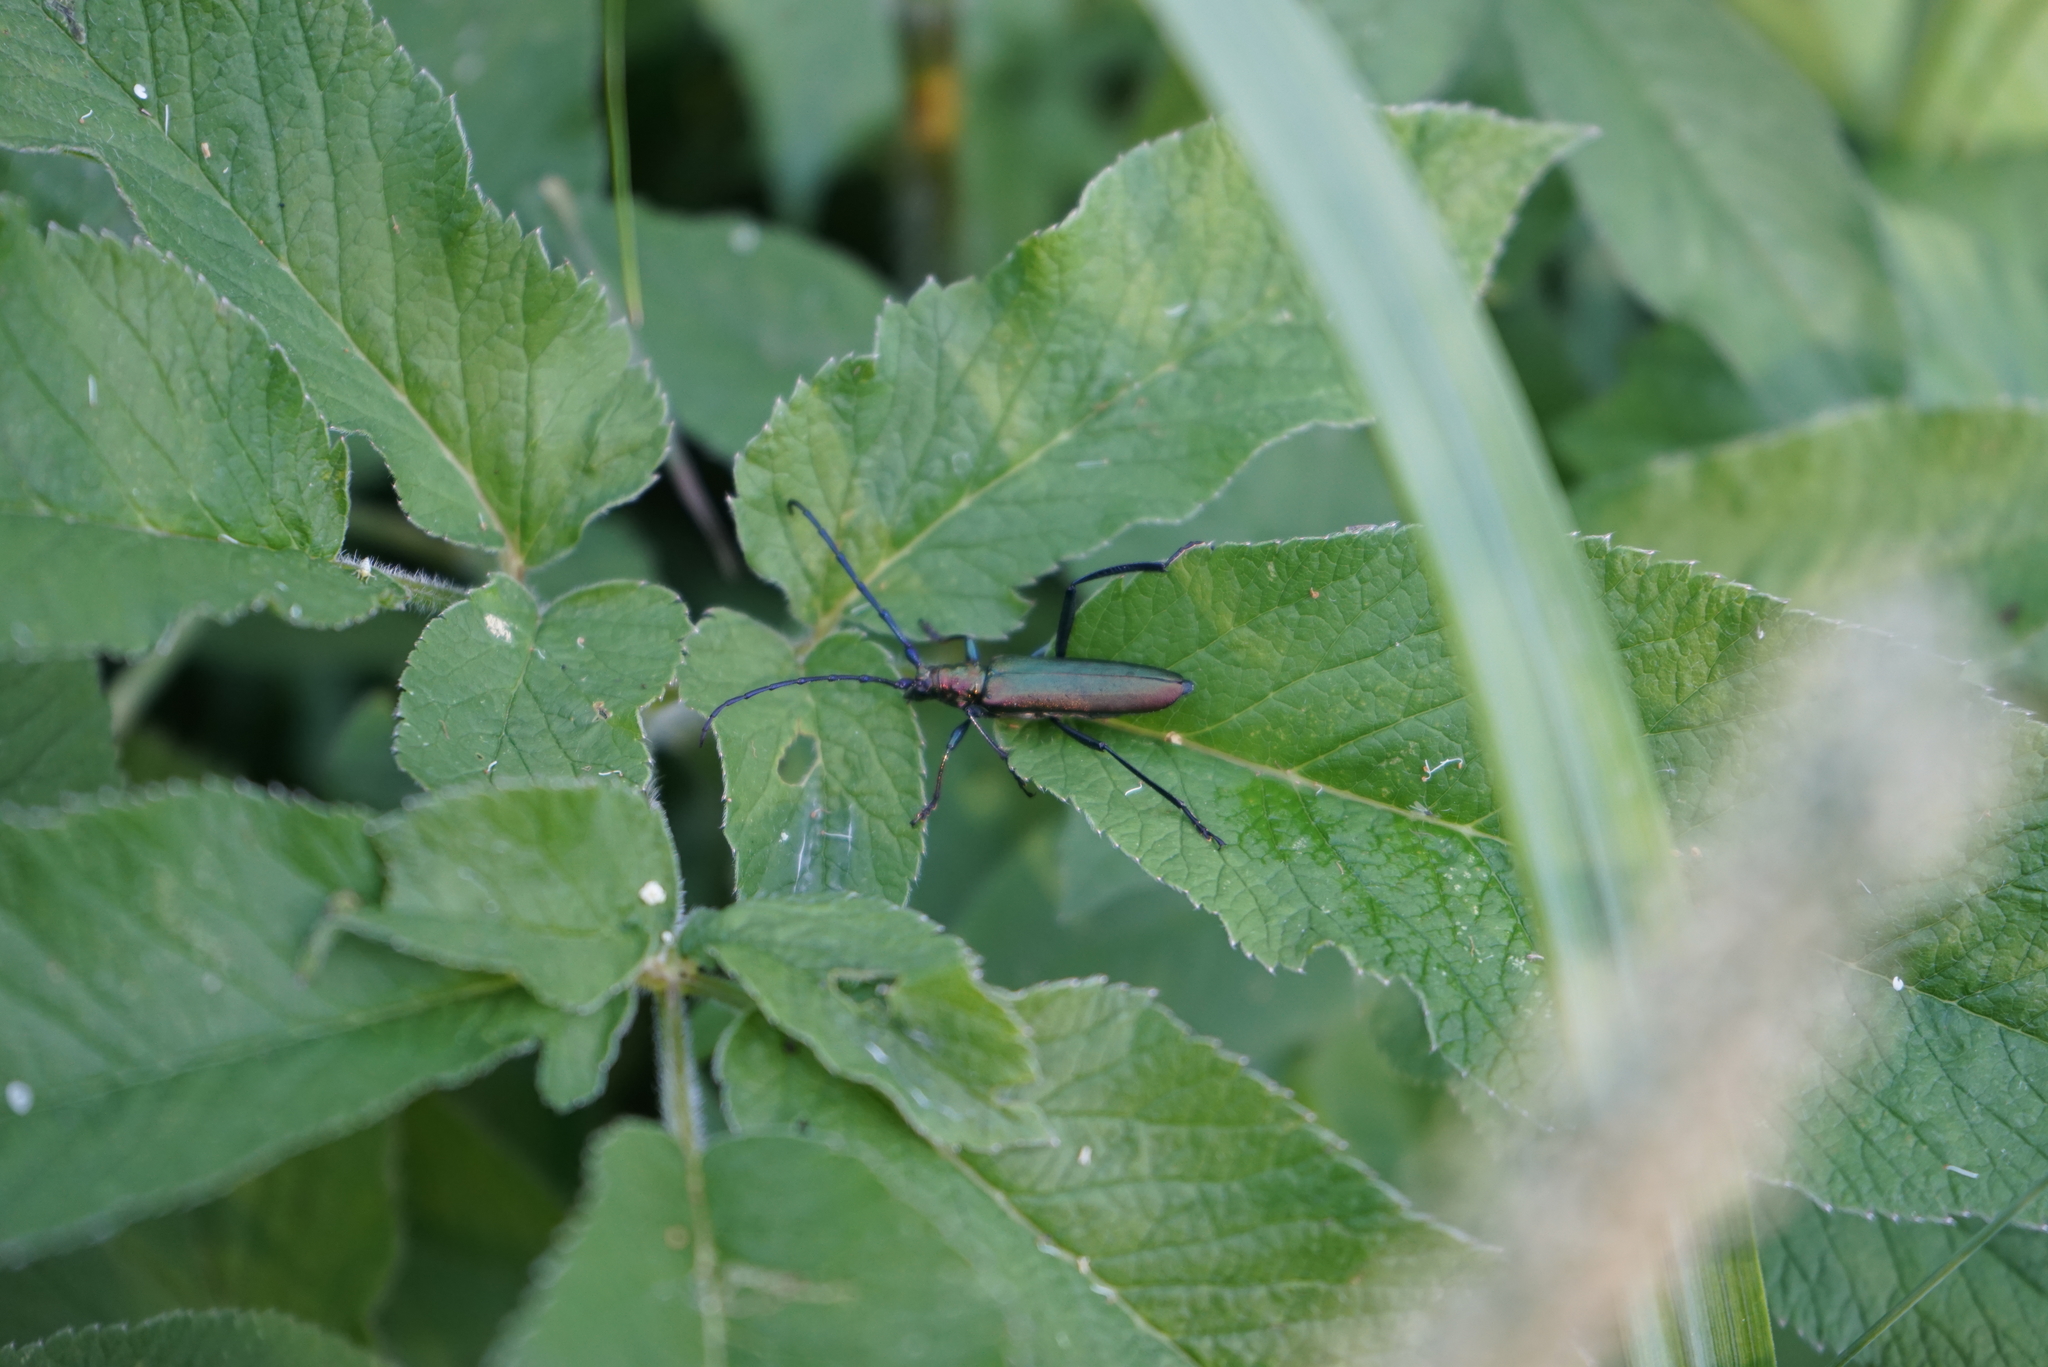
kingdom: Animalia
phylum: Arthropoda
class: Insecta
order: Coleoptera
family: Cerambycidae
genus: Aromia
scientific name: Aromia moschata
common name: Musk beetle
